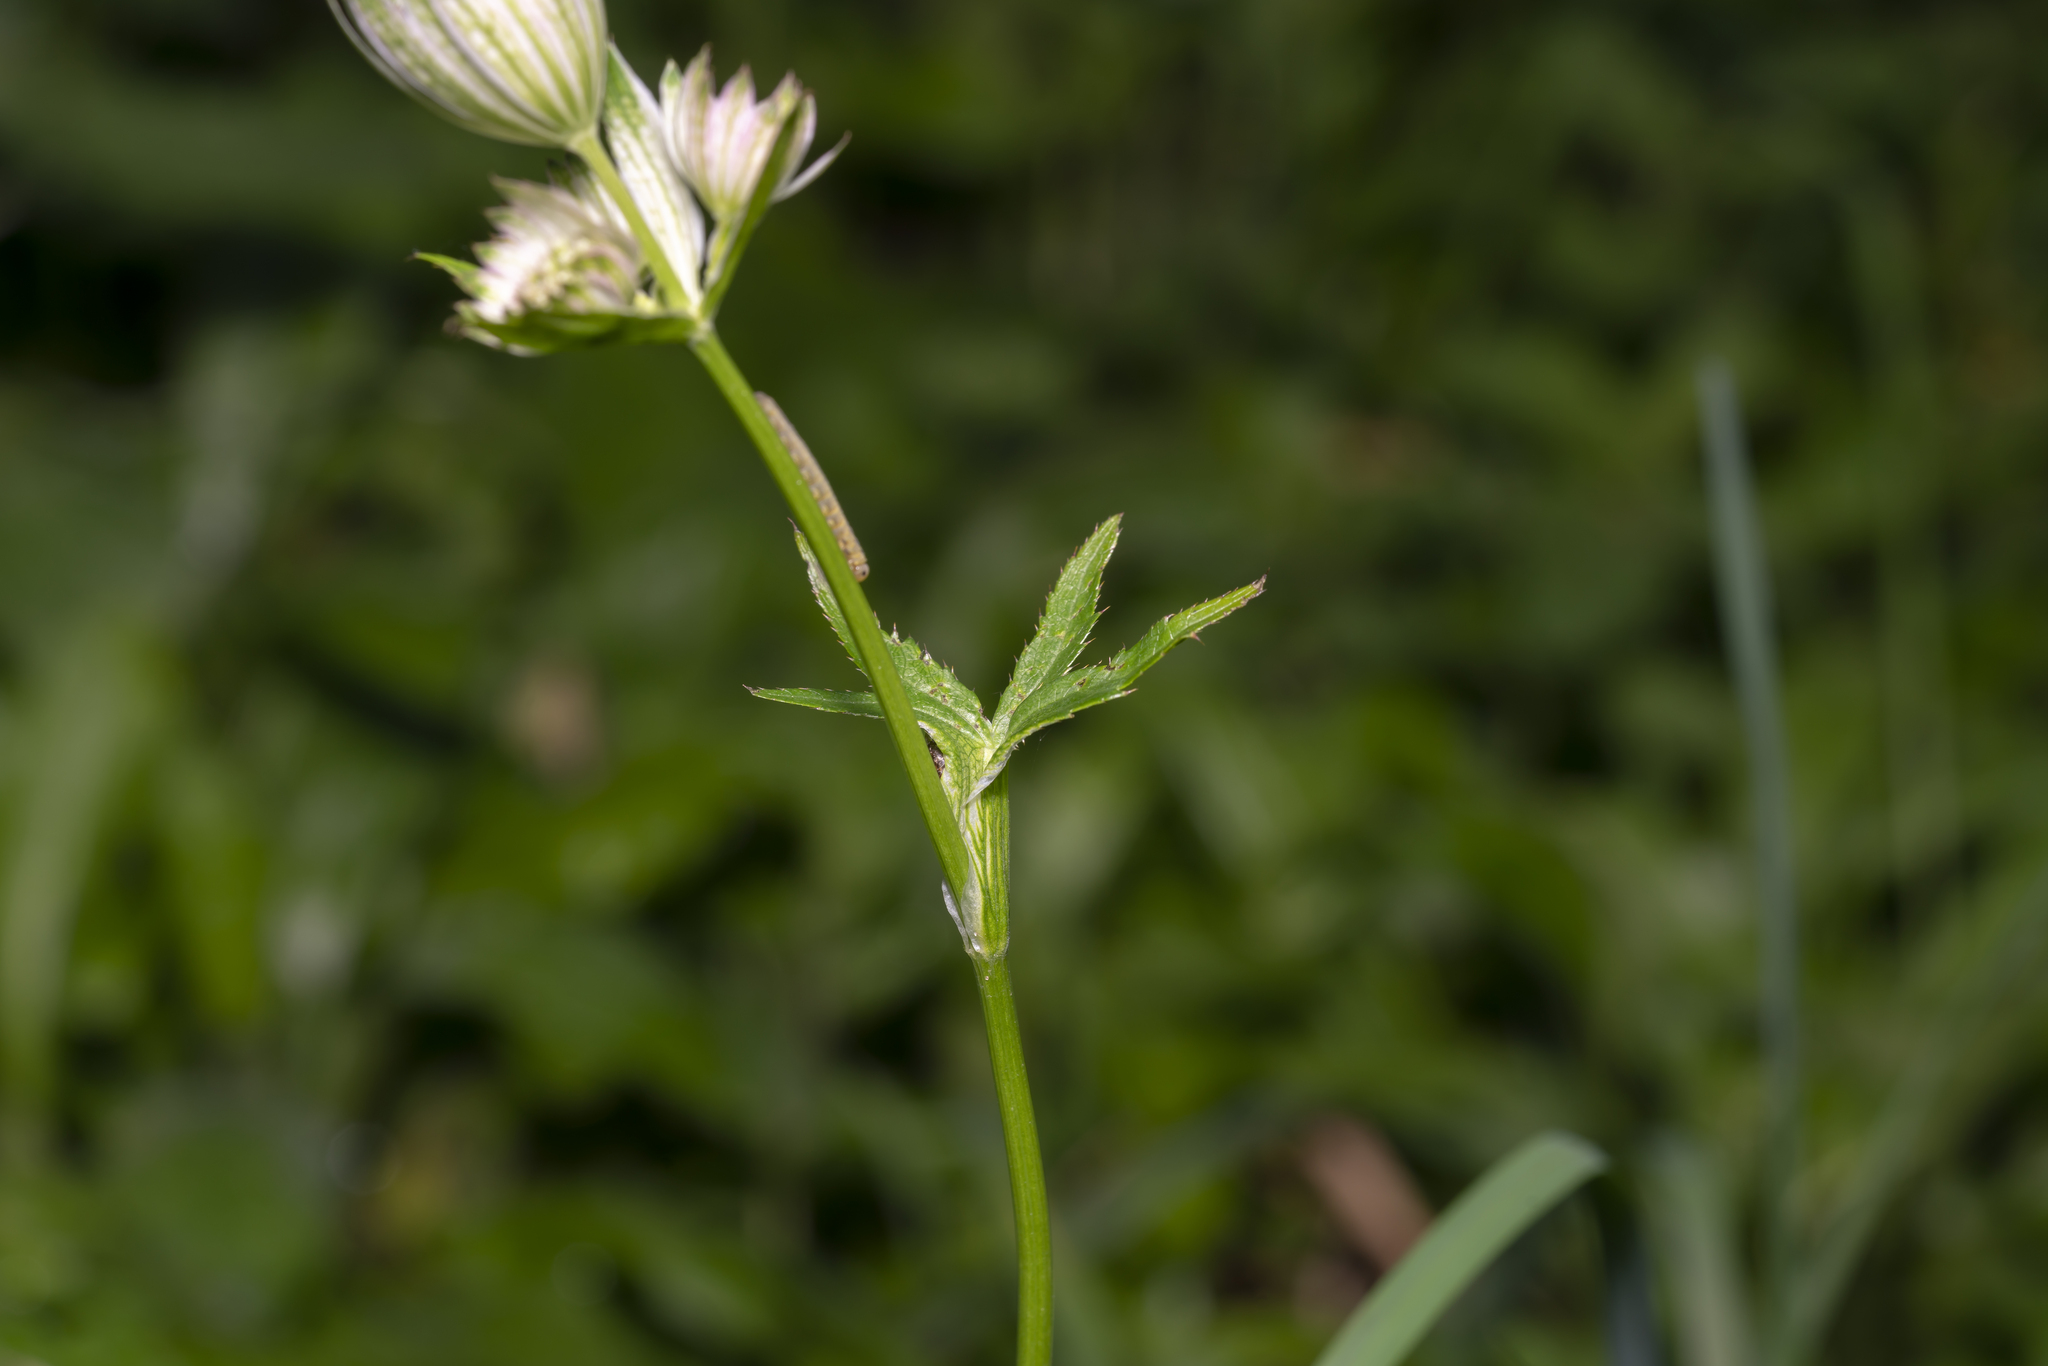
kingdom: Plantae
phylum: Tracheophyta
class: Magnoliopsida
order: Apiales
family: Apiaceae
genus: Astrantia
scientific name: Astrantia major
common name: Greater masterwort
